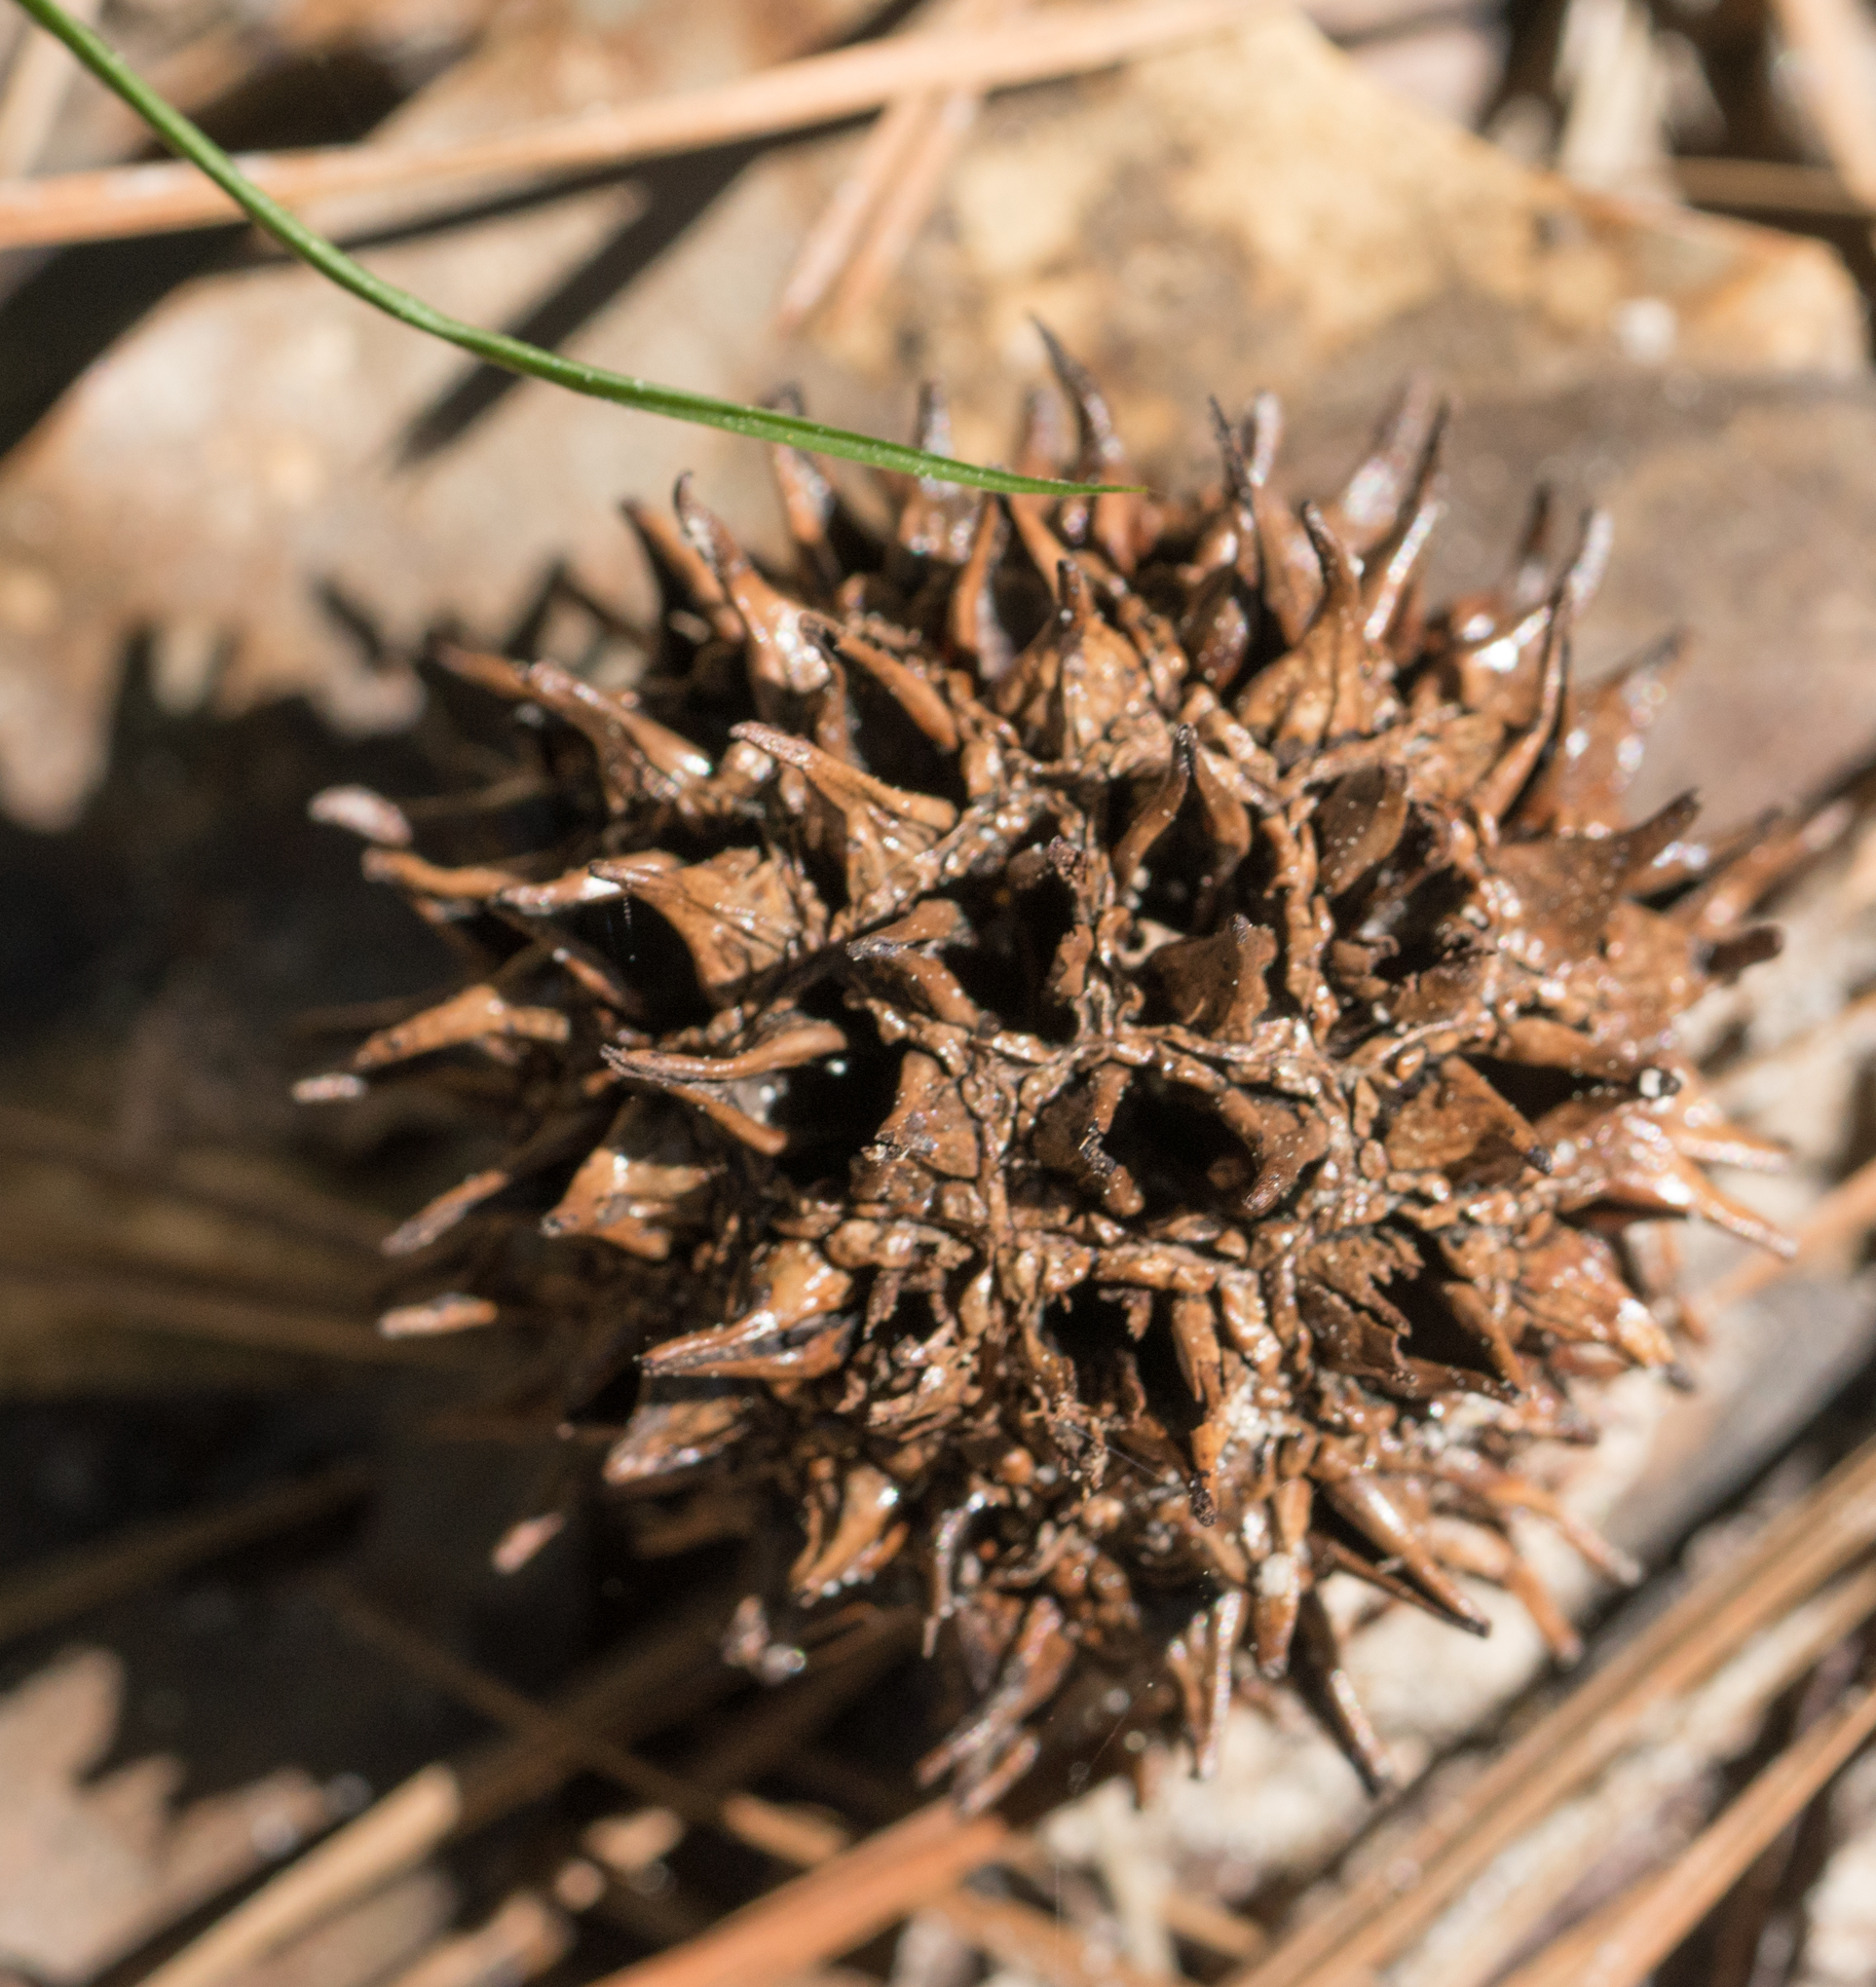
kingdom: Plantae
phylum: Tracheophyta
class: Magnoliopsida
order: Saxifragales
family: Altingiaceae
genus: Liquidambar
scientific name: Liquidambar styraciflua
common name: Sweet gum
